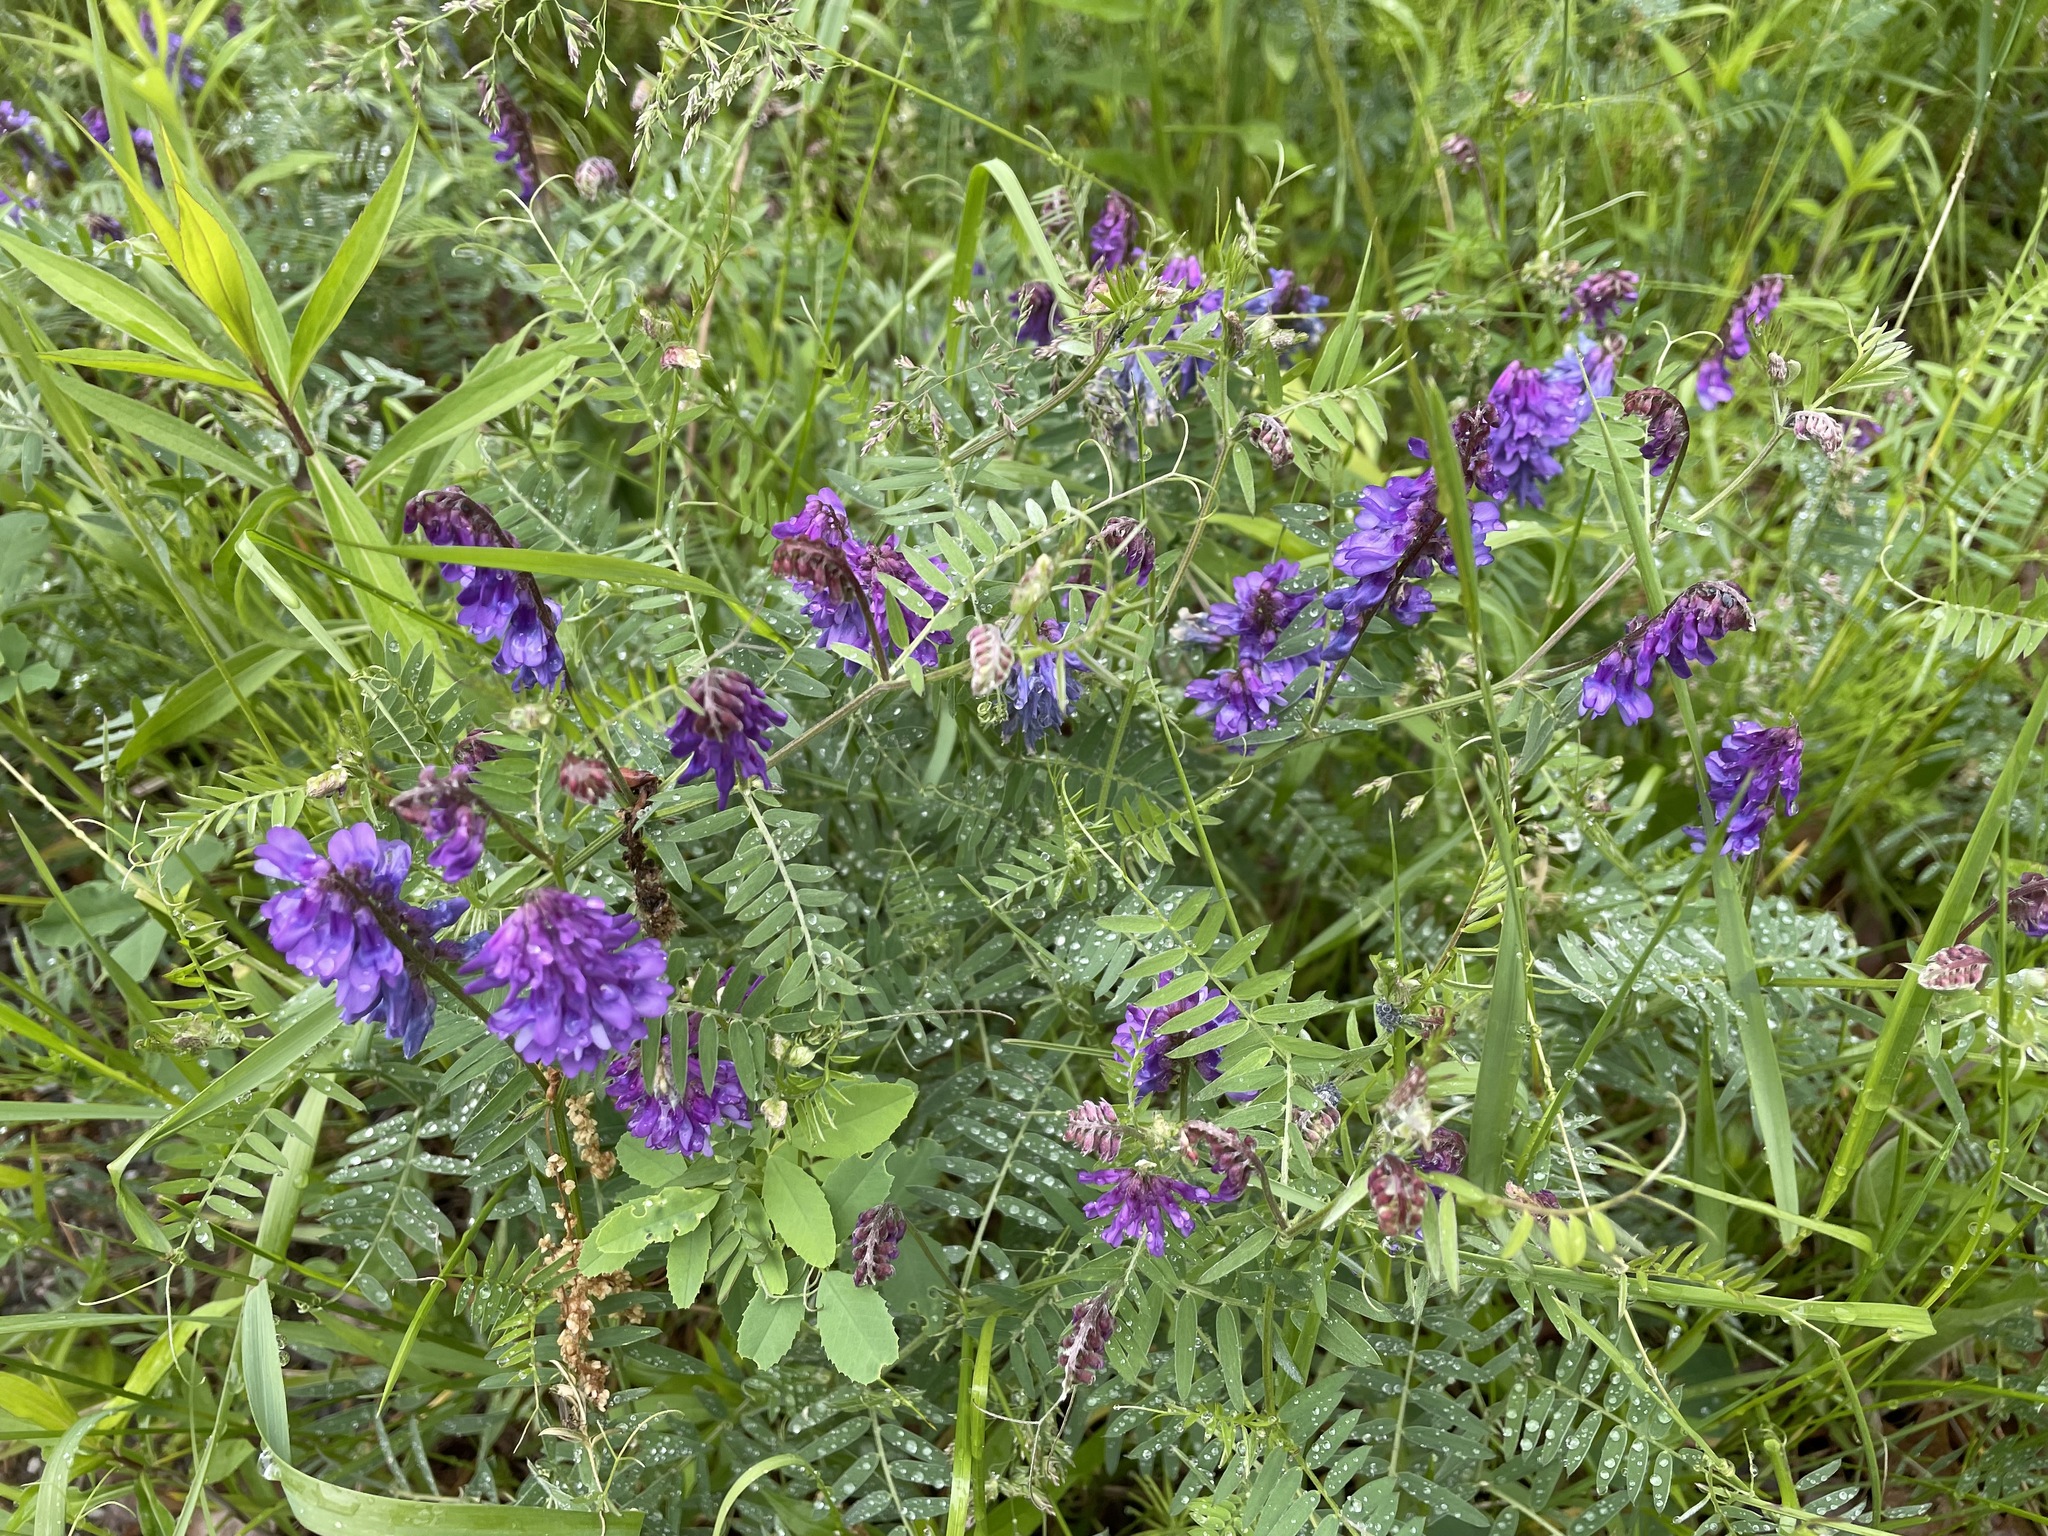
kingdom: Plantae
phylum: Tracheophyta
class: Magnoliopsida
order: Fabales
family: Fabaceae
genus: Vicia
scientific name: Vicia cracca
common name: Bird vetch
